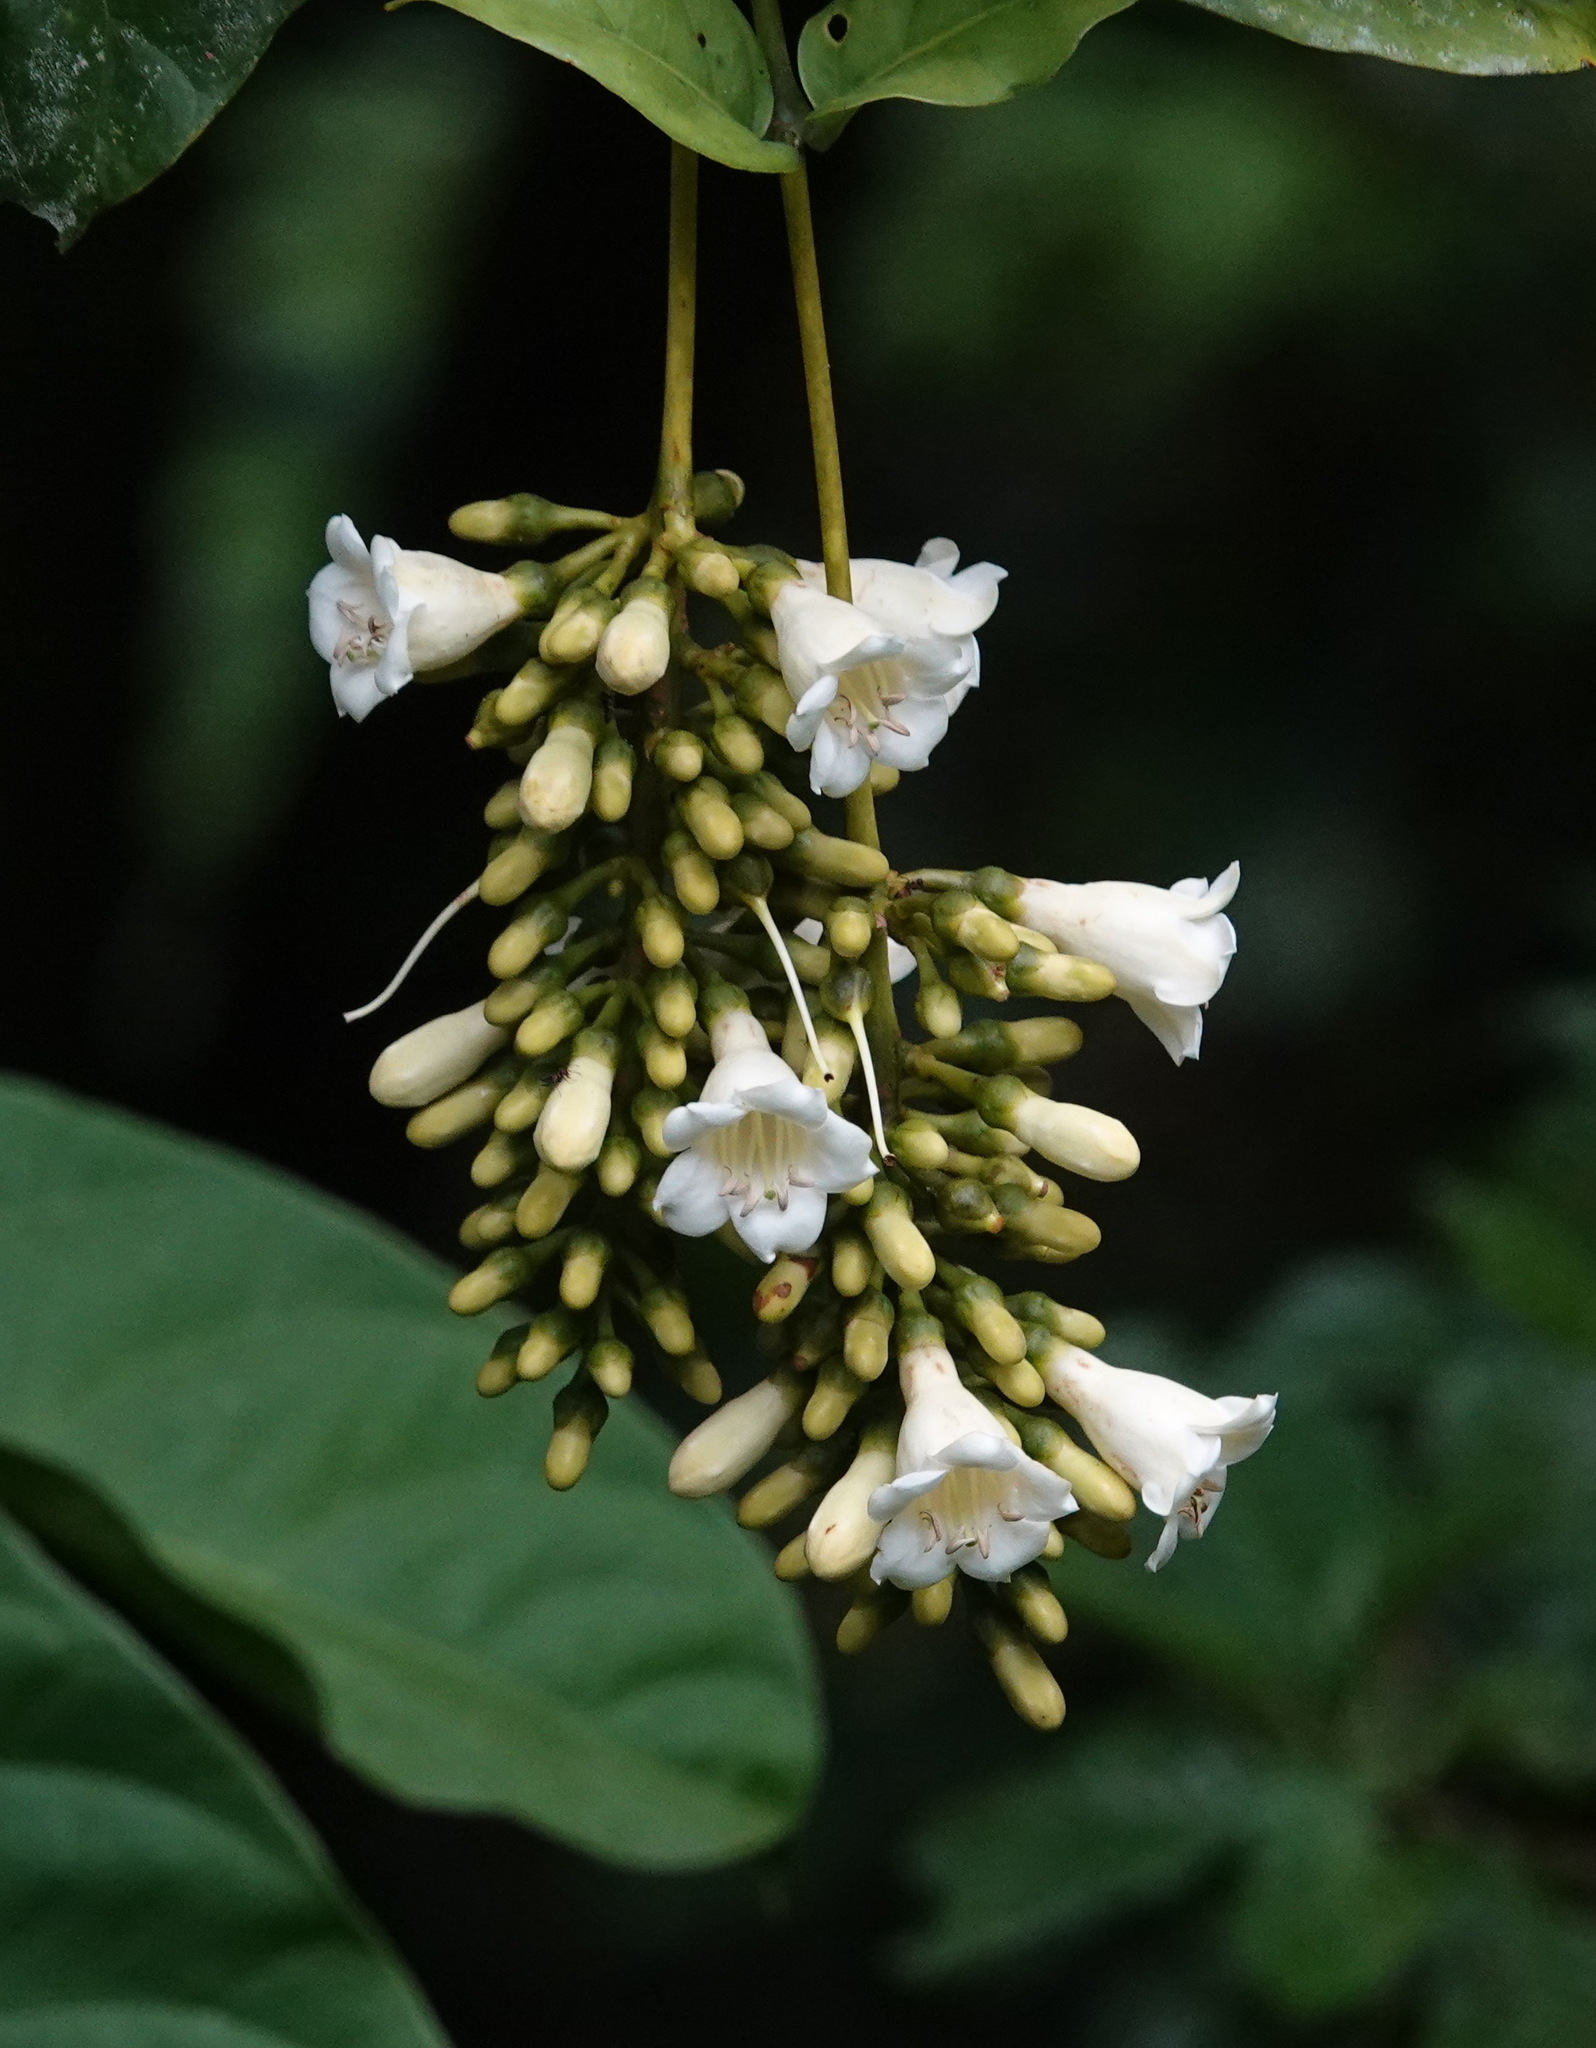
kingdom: Plantae
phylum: Tracheophyta
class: Magnoliopsida
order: Gentianales
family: Gentianaceae
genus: Utania
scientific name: Utania cuspidata
